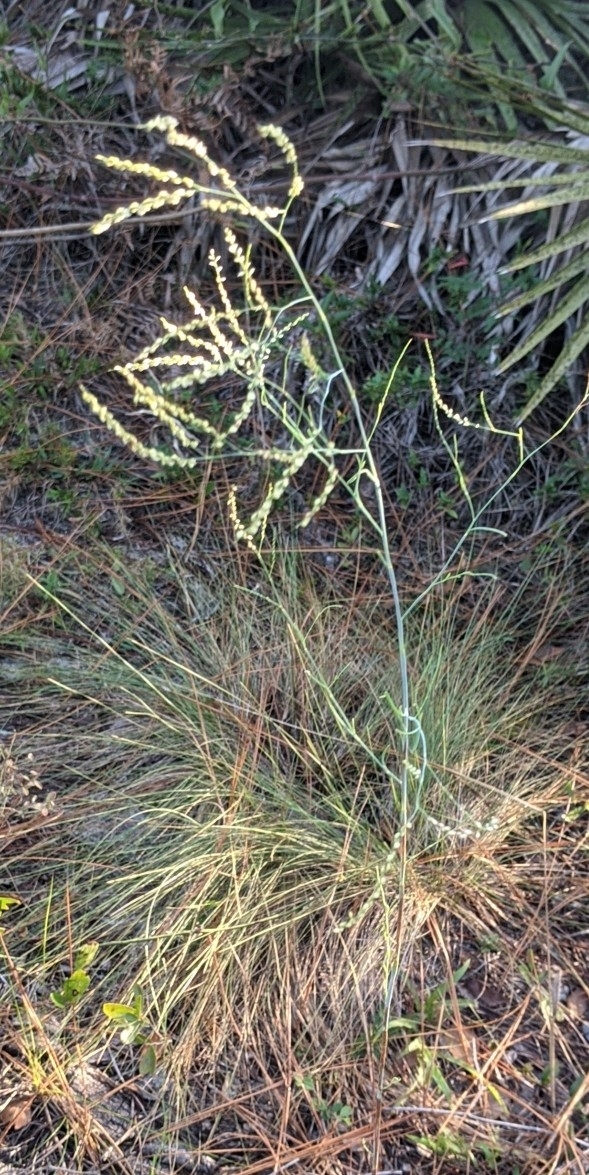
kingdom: Plantae
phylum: Tracheophyta
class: Magnoliopsida
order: Caryophyllales
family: Polygonaceae
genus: Polygonella
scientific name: Polygonella gracilis
